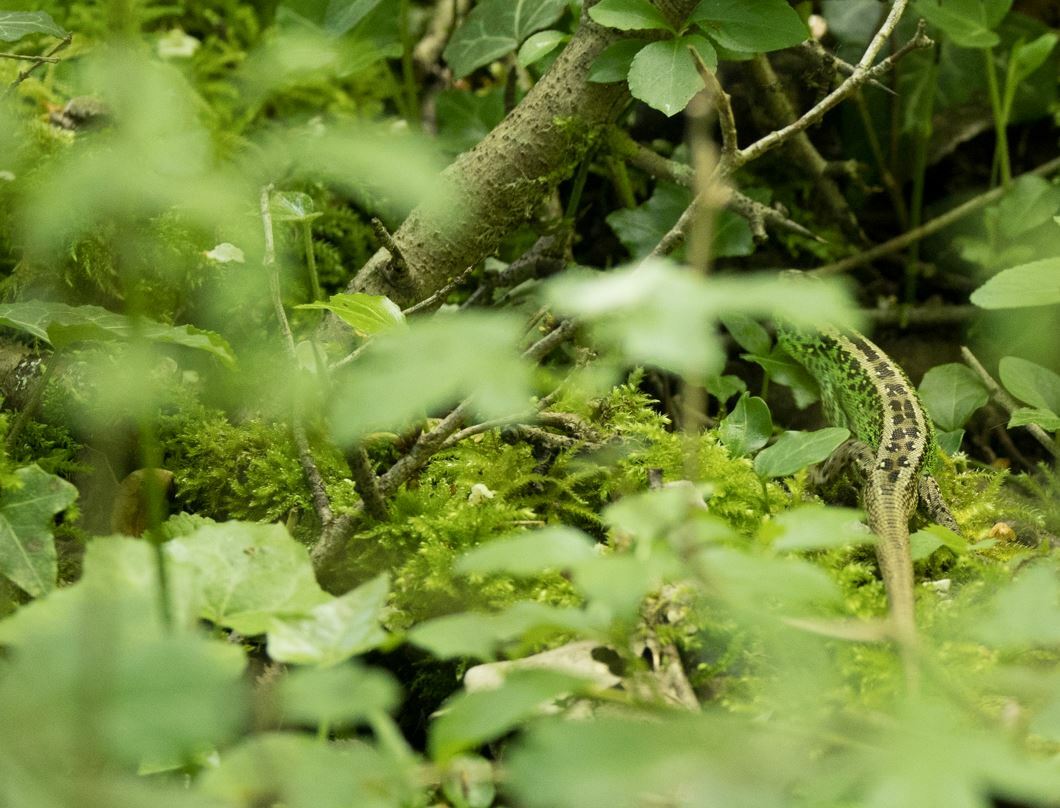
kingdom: Animalia
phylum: Chordata
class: Squamata
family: Lacertidae
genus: Lacerta
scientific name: Lacerta agilis
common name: Sand lizard
